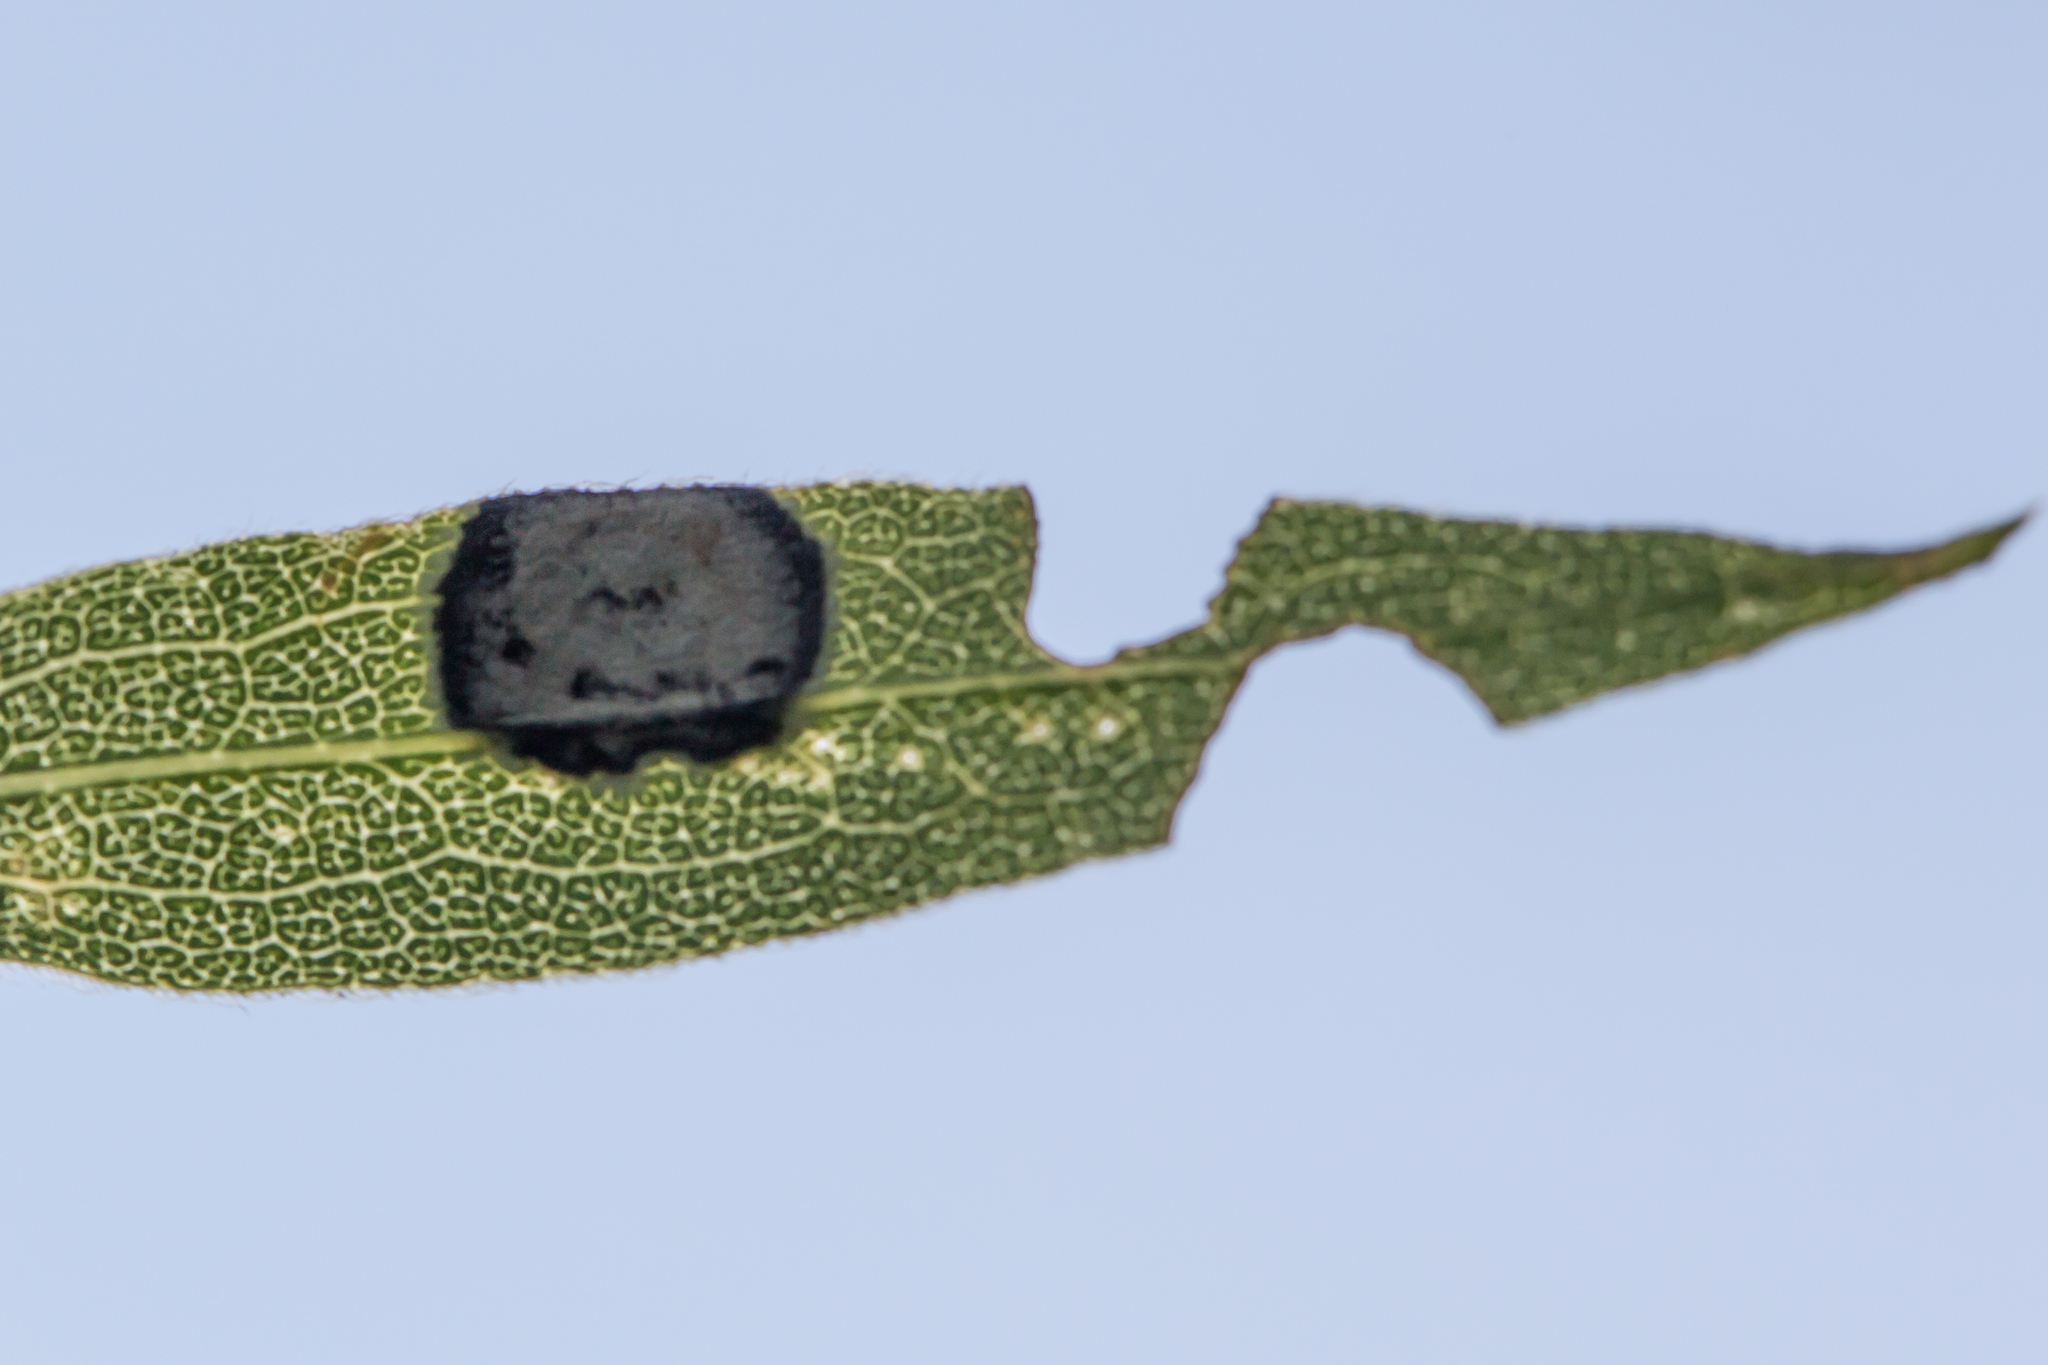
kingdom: Animalia
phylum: Arthropoda
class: Insecta
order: Diptera
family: Cecidomyiidae
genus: Asteromyia
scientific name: Asteromyia carbonifera
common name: Carbonifera goldenrod gall midge
